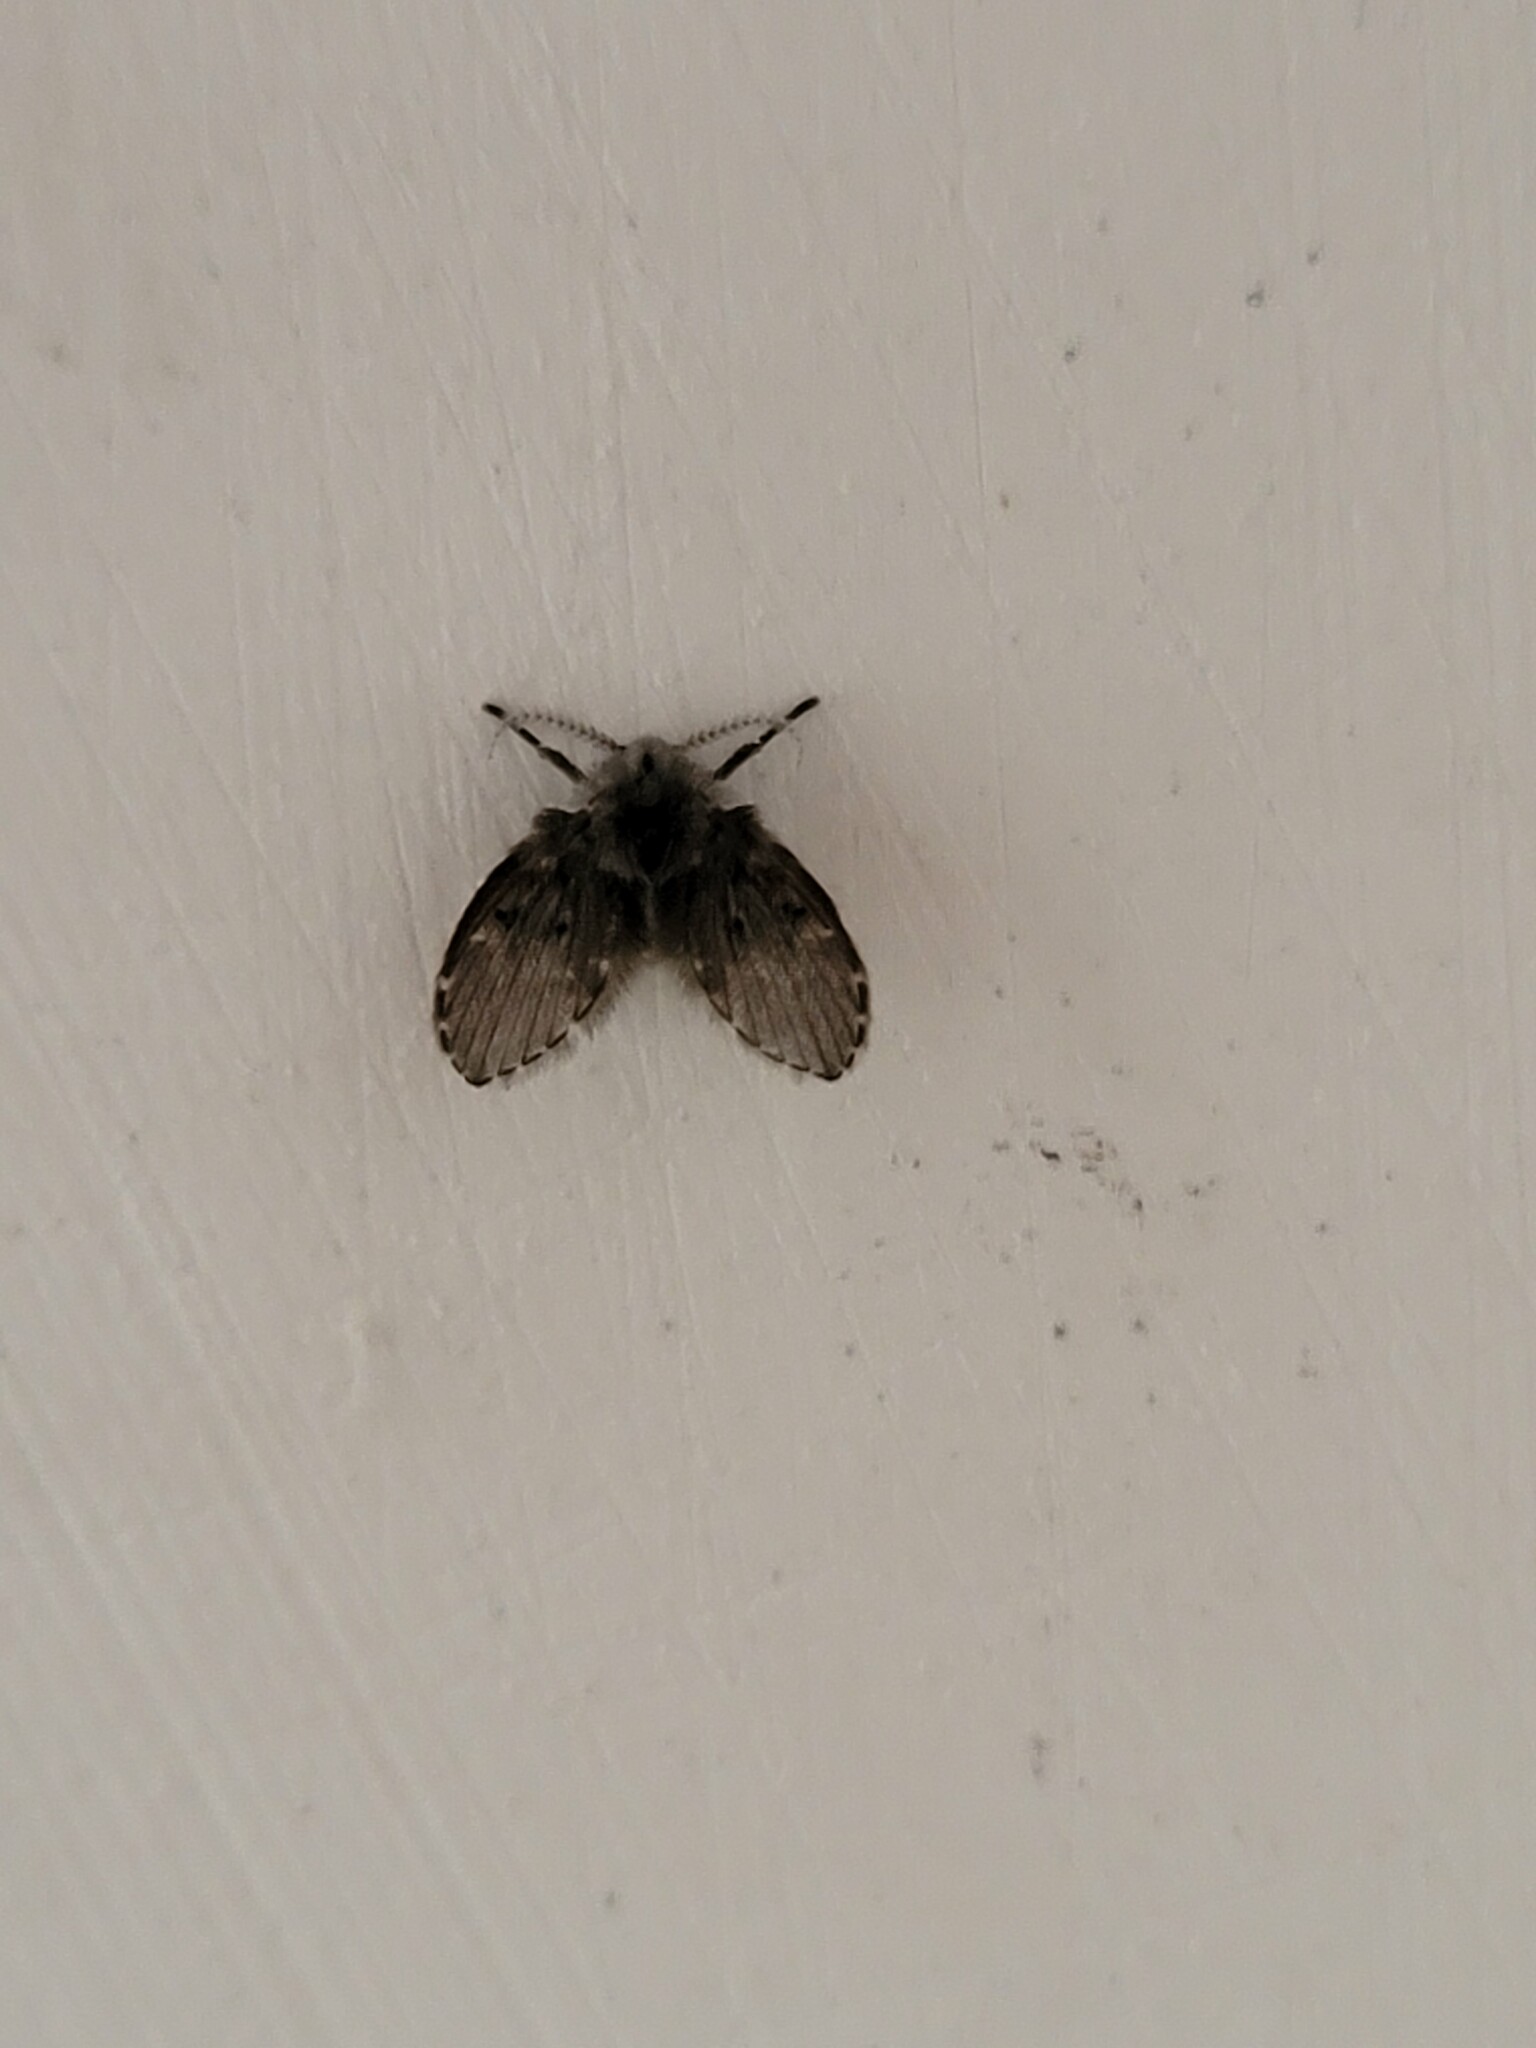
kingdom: Animalia
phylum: Arthropoda
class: Insecta
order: Diptera
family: Psychodidae
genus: Clogmia
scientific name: Clogmia albipunctatus
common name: White-spotted moth fly
